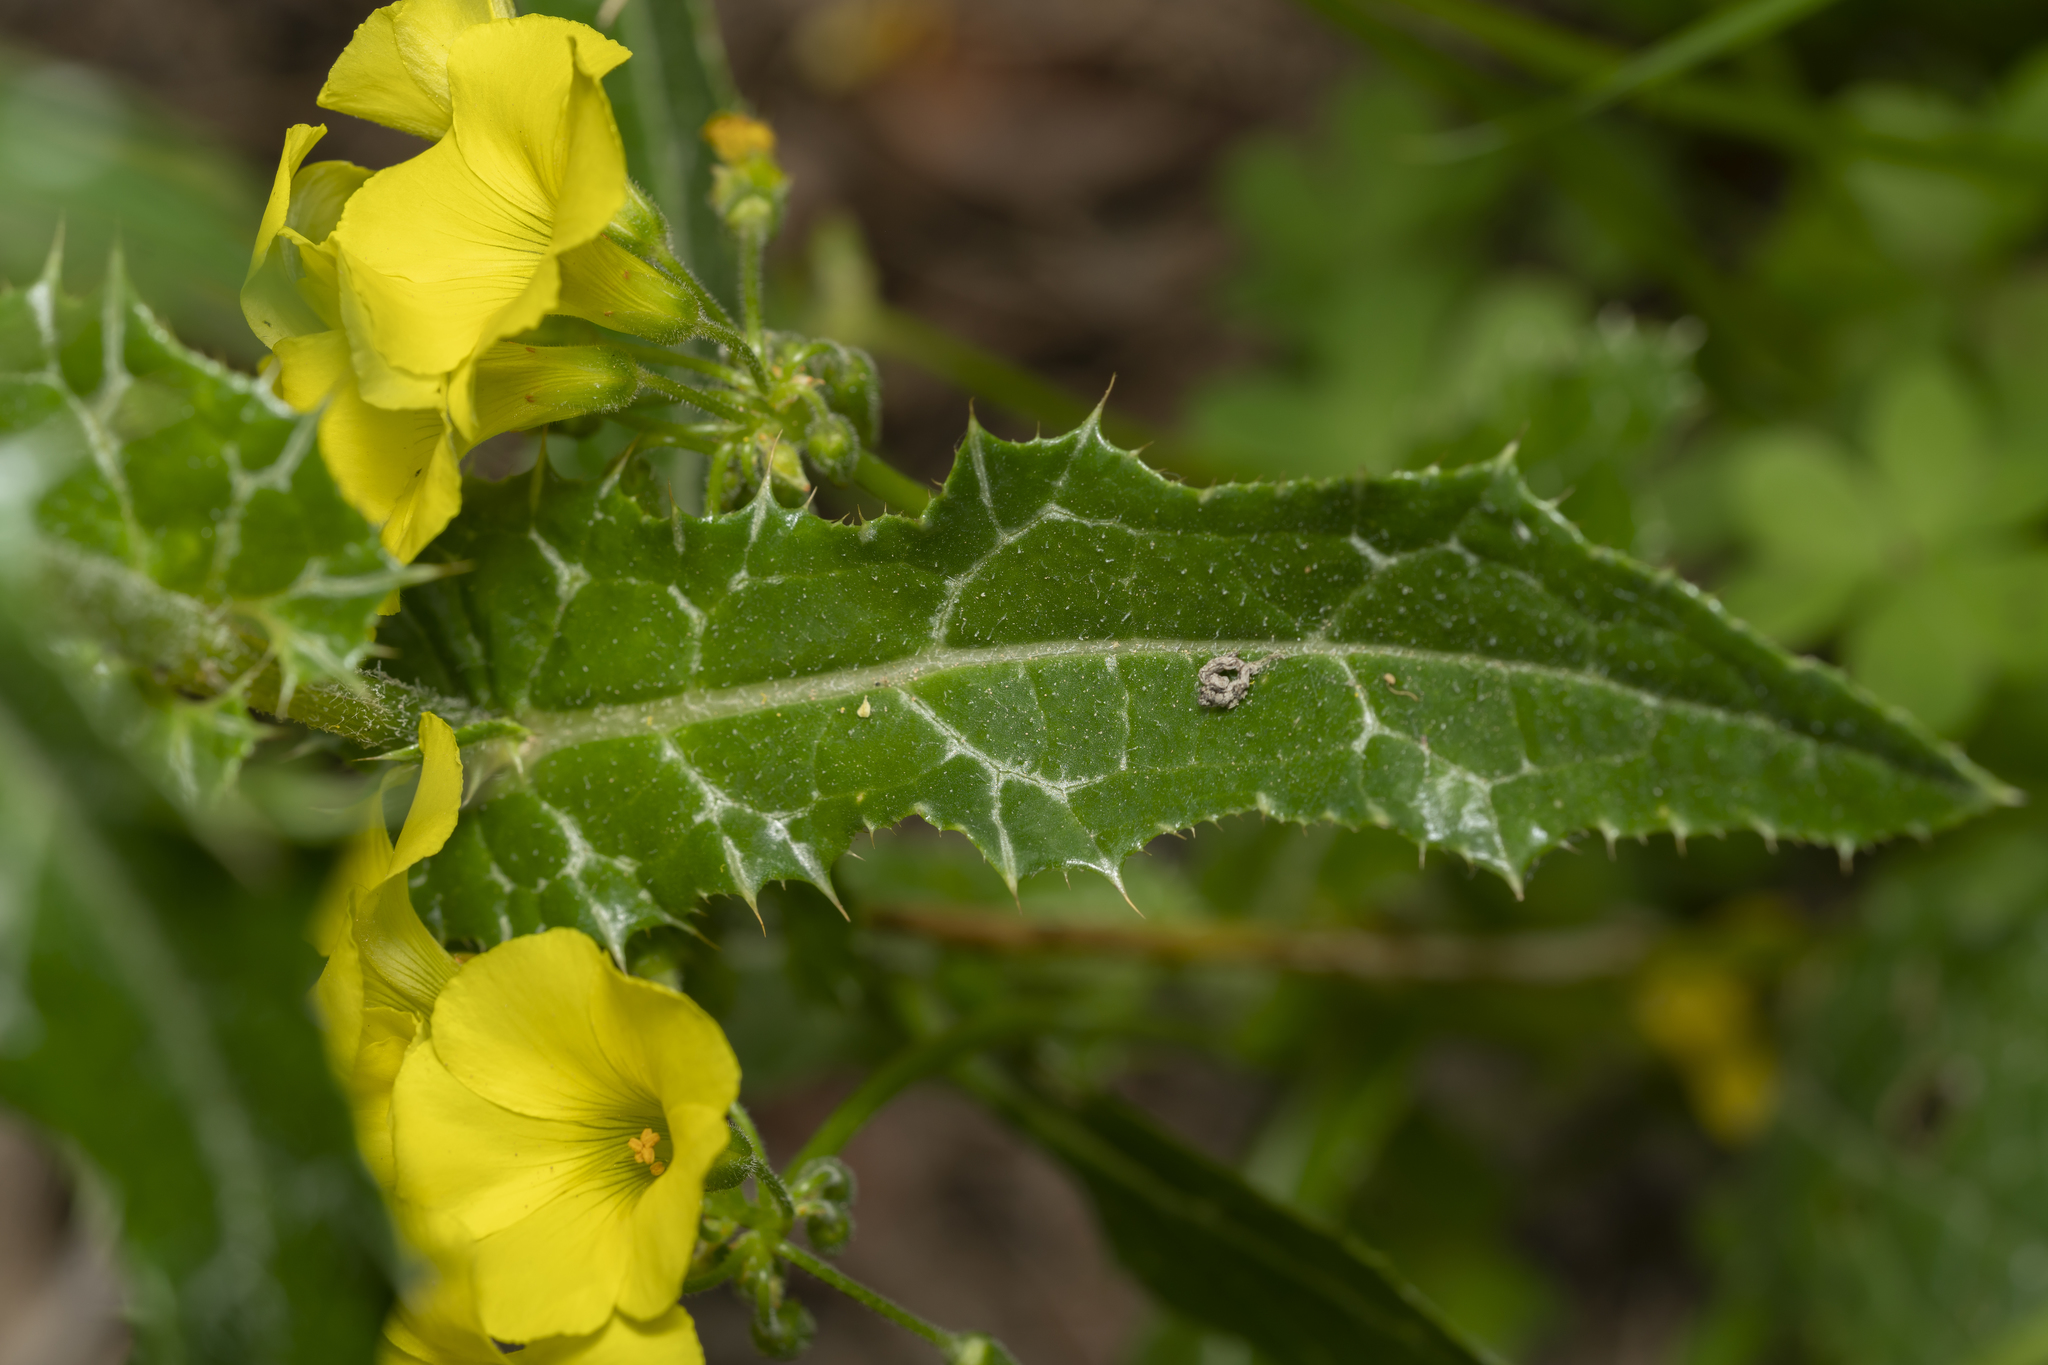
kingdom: Plantae
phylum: Tracheophyta
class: Magnoliopsida
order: Asterales
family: Asteraceae
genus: Notobasis
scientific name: Notobasis syriaca
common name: Syrian thistle
